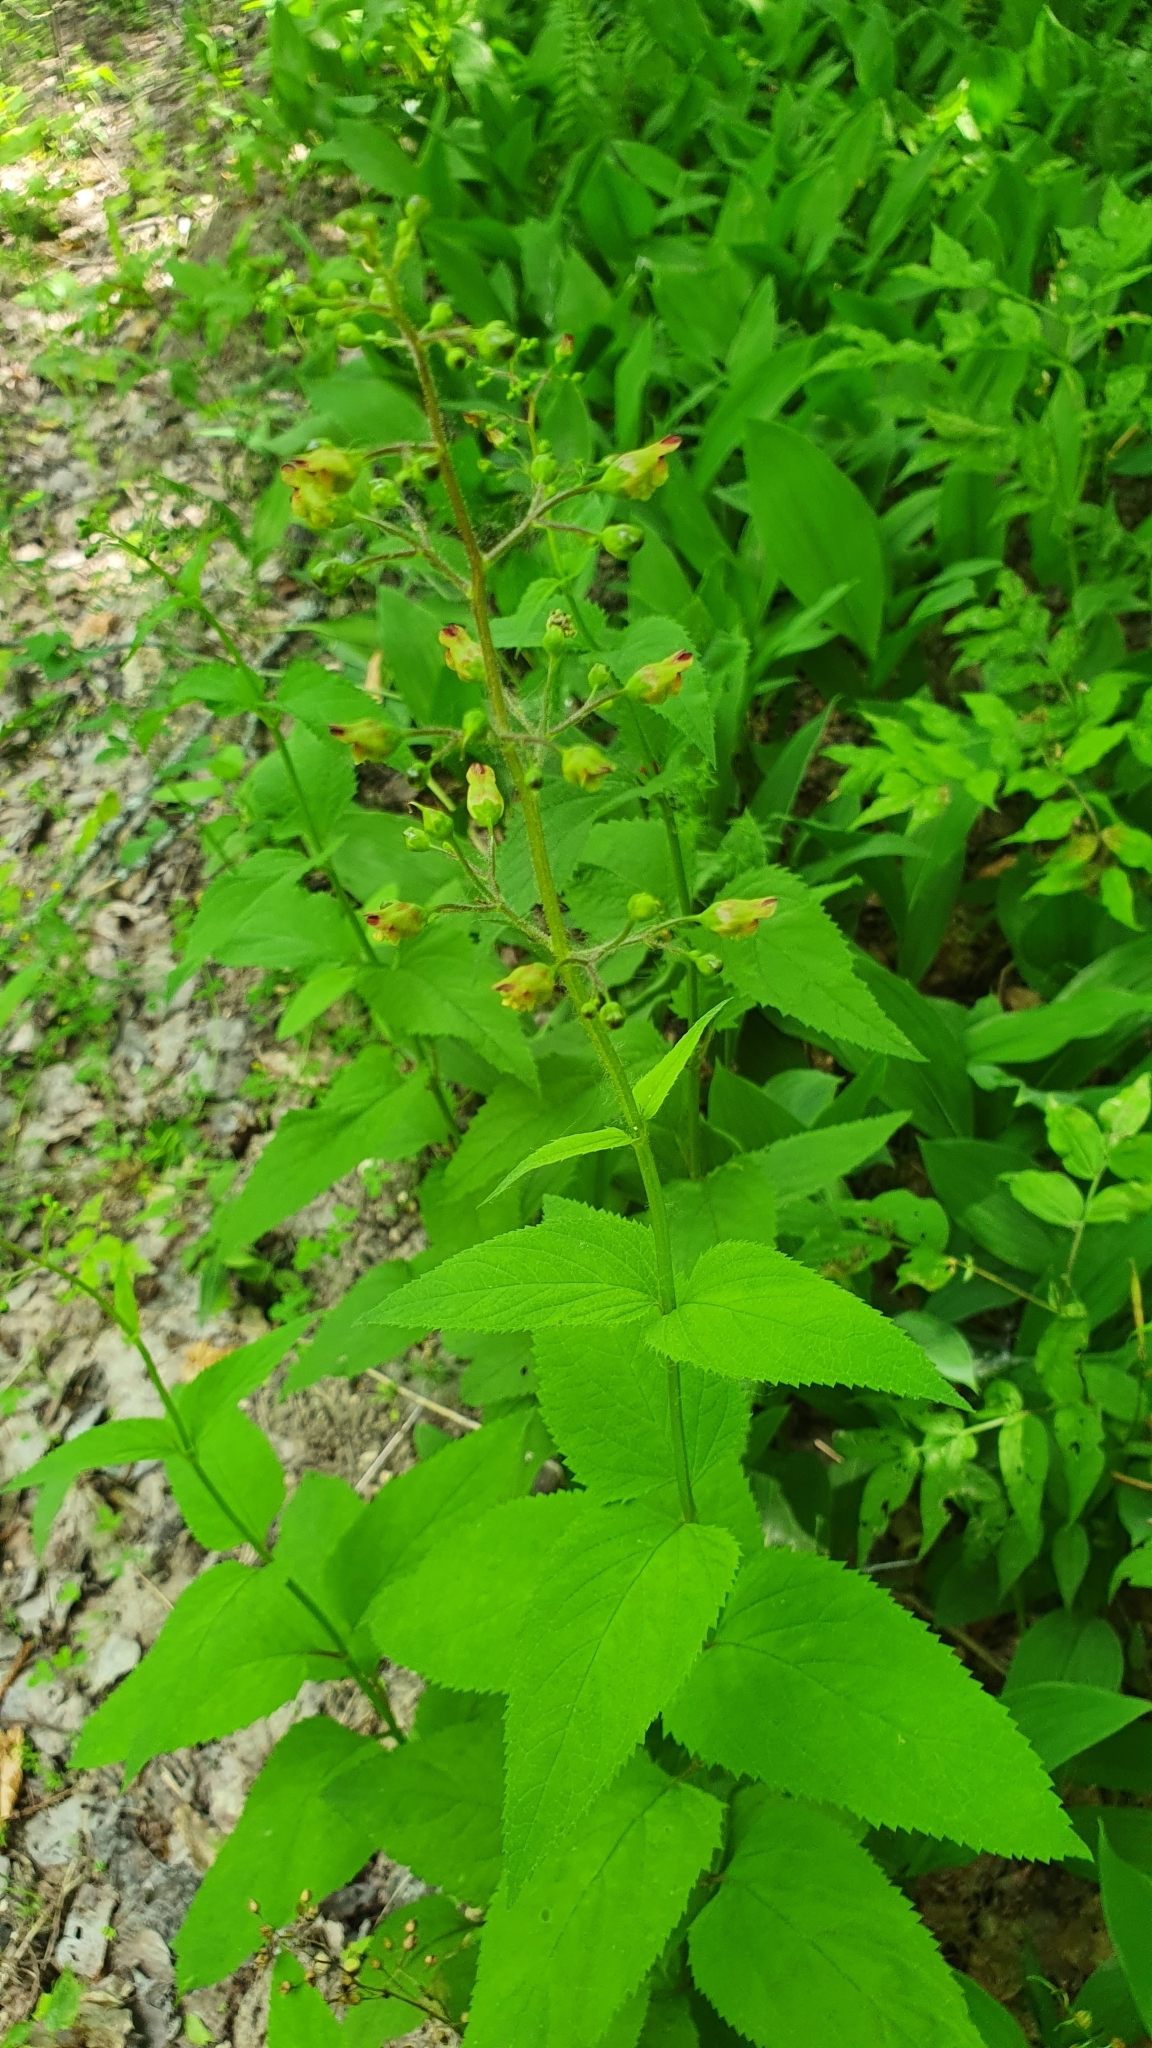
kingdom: Plantae
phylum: Tracheophyta
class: Magnoliopsida
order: Lamiales
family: Scrophulariaceae
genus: Scrophularia
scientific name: Scrophularia nodosa
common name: Common figwort
